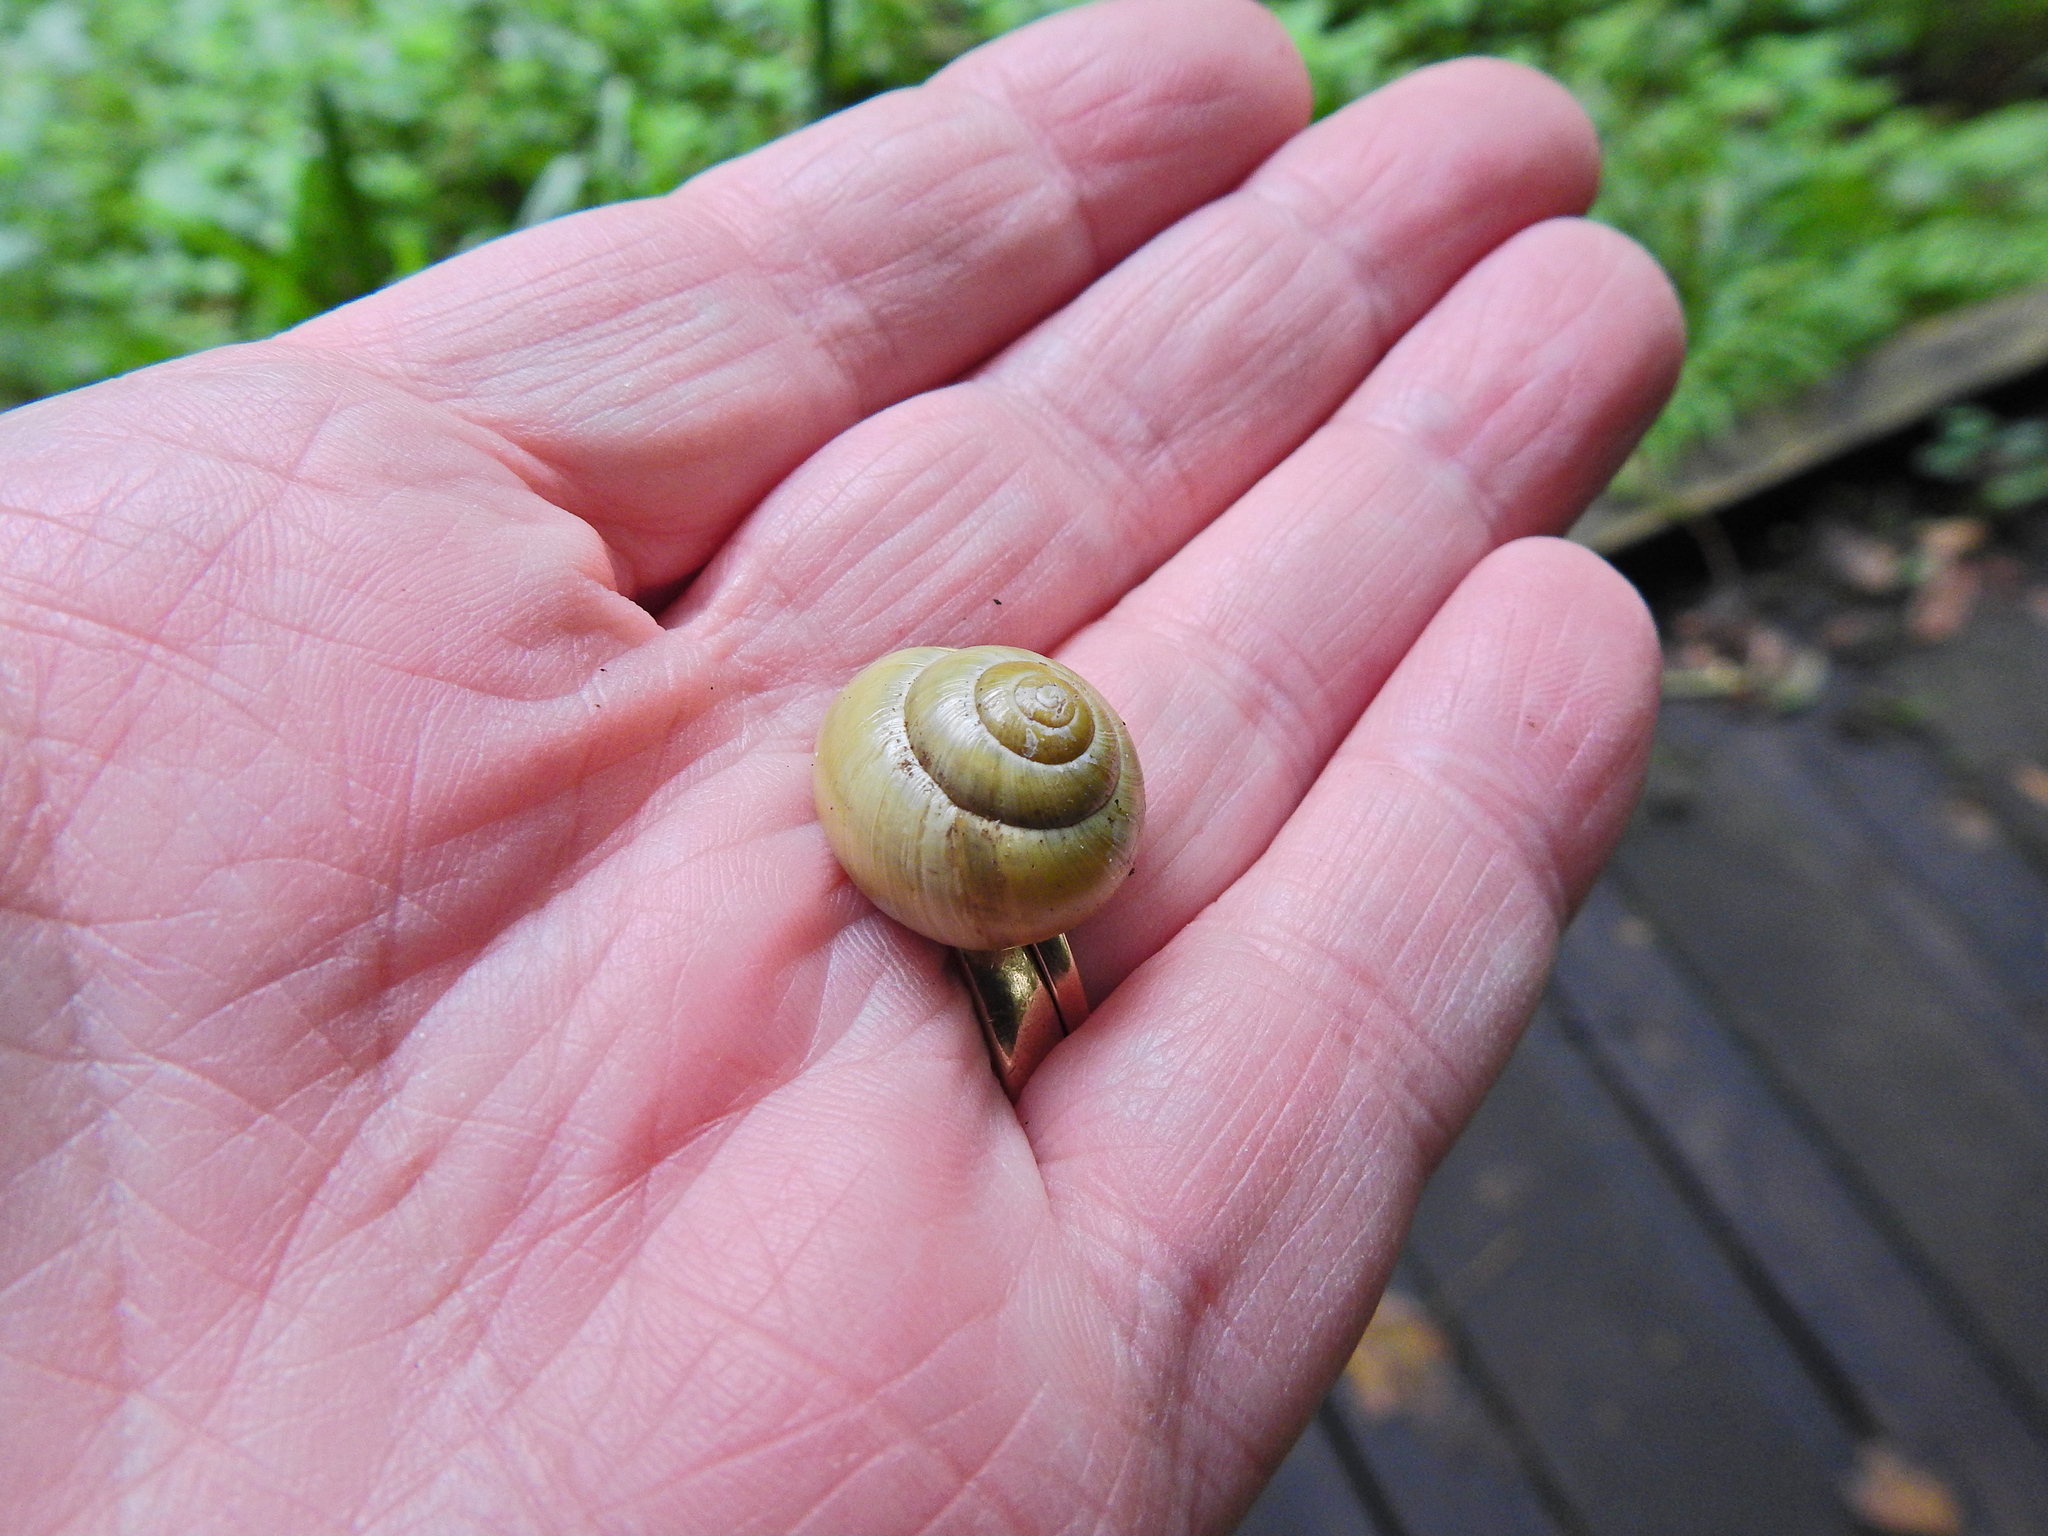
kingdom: Animalia
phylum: Mollusca
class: Gastropoda
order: Stylommatophora
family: Helicidae
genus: Cepaea
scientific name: Cepaea hortensis
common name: White-lip gardensnail
